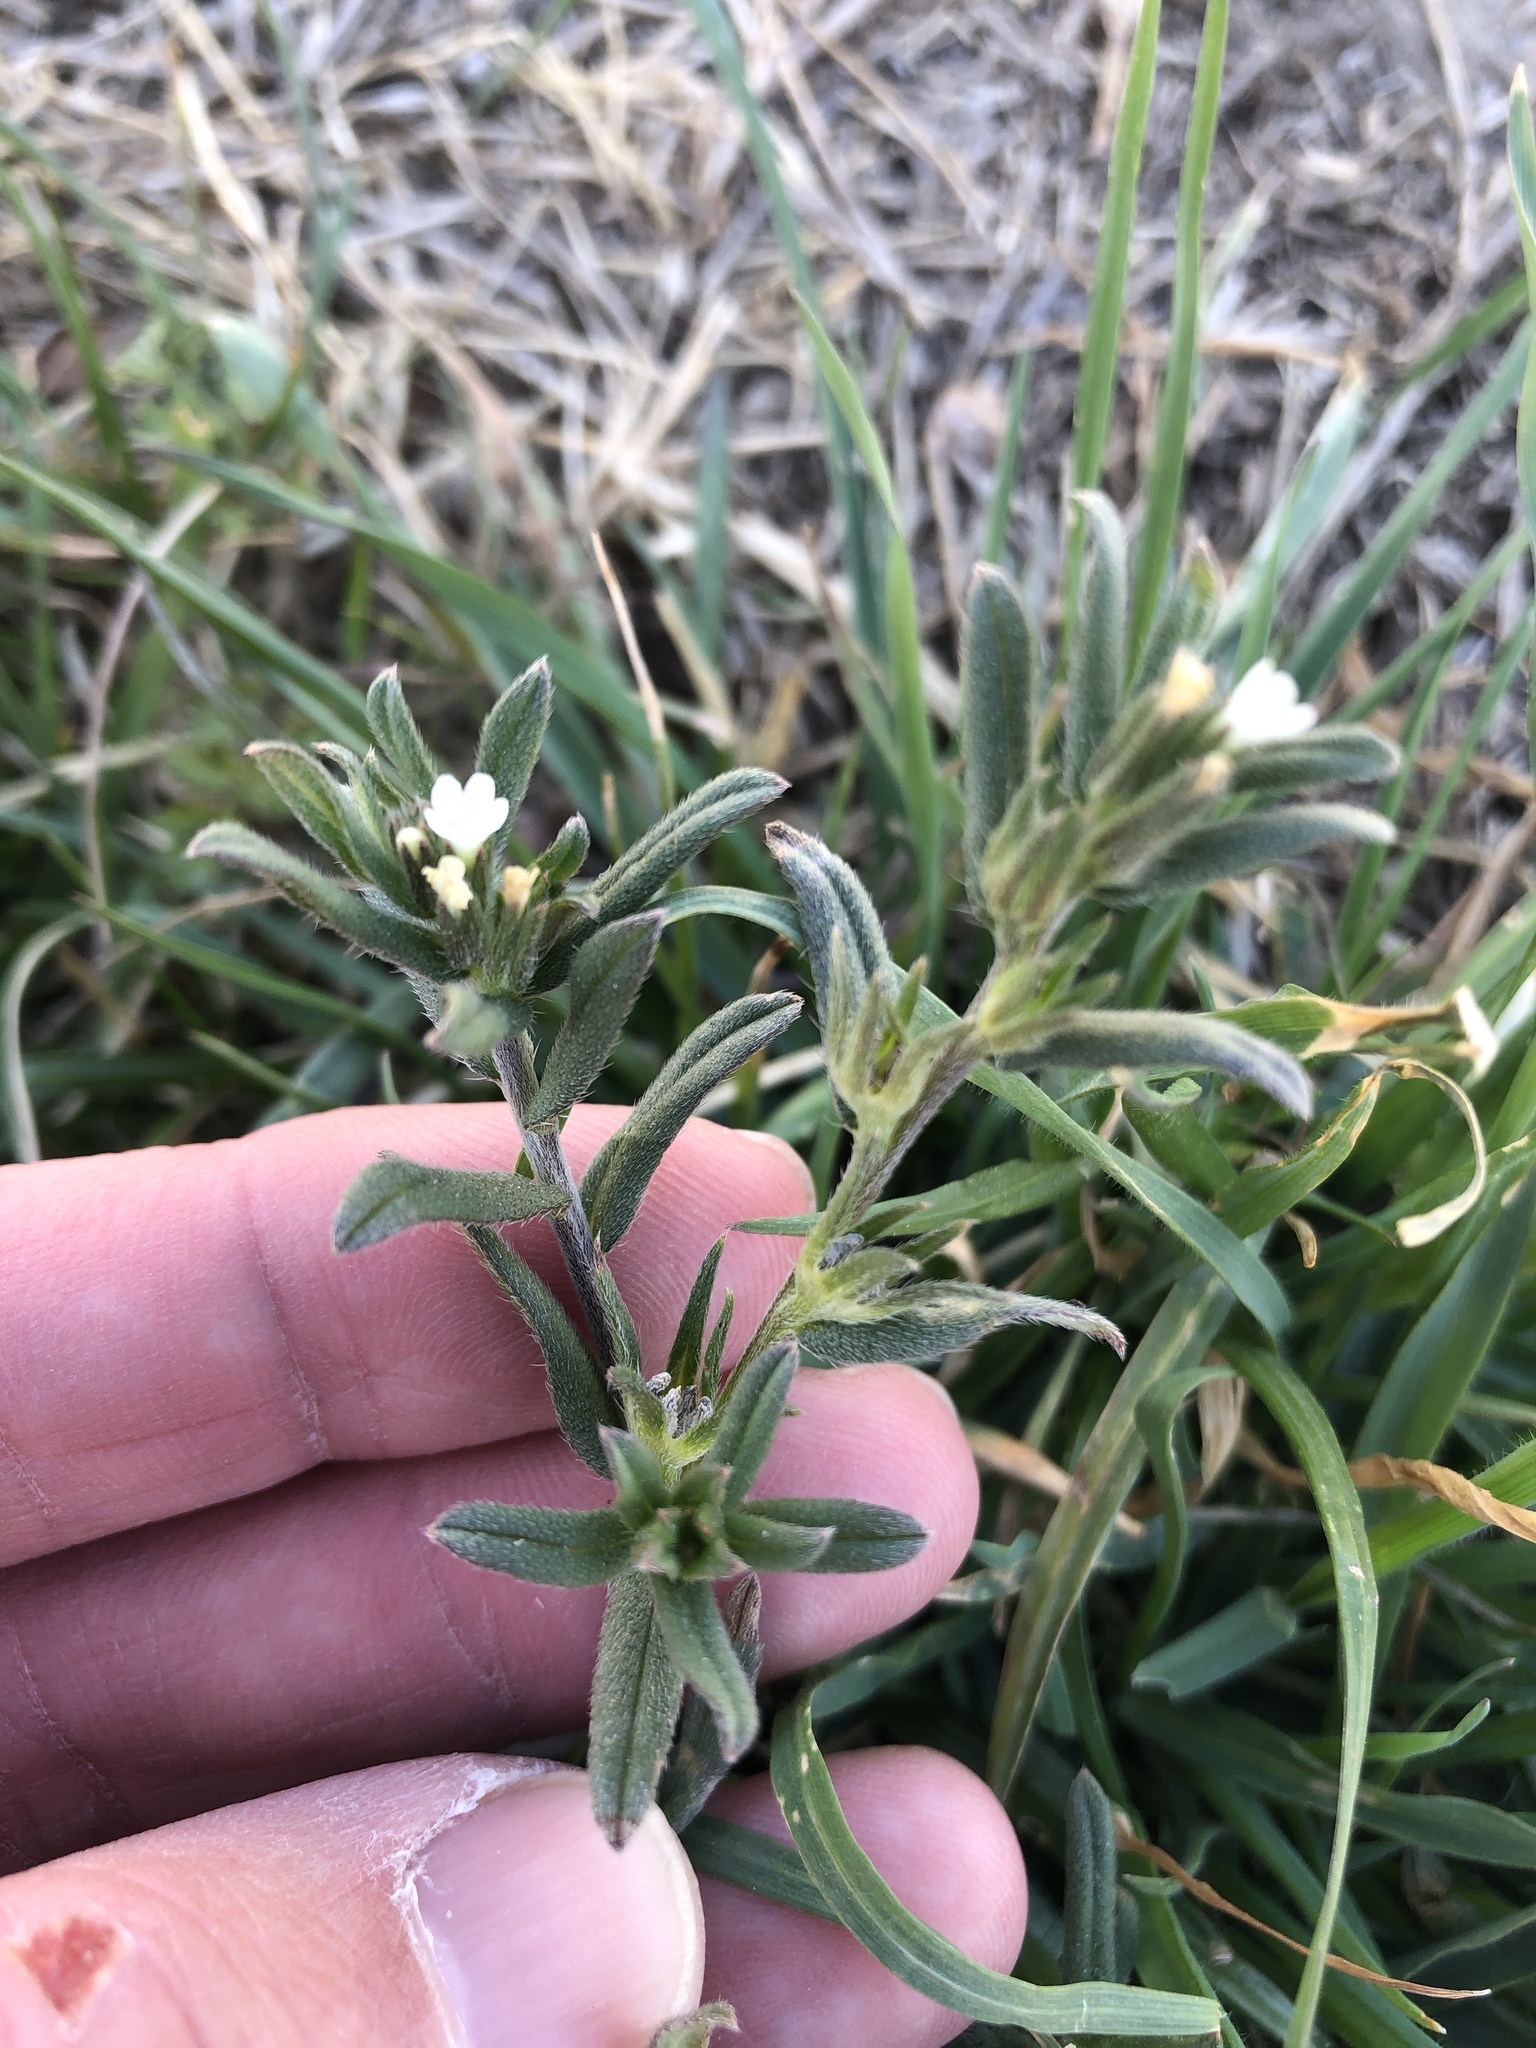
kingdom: Plantae
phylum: Tracheophyta
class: Magnoliopsida
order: Boraginales
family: Boraginaceae
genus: Buglossoides
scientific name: Buglossoides arvensis
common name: Corn gromwell
